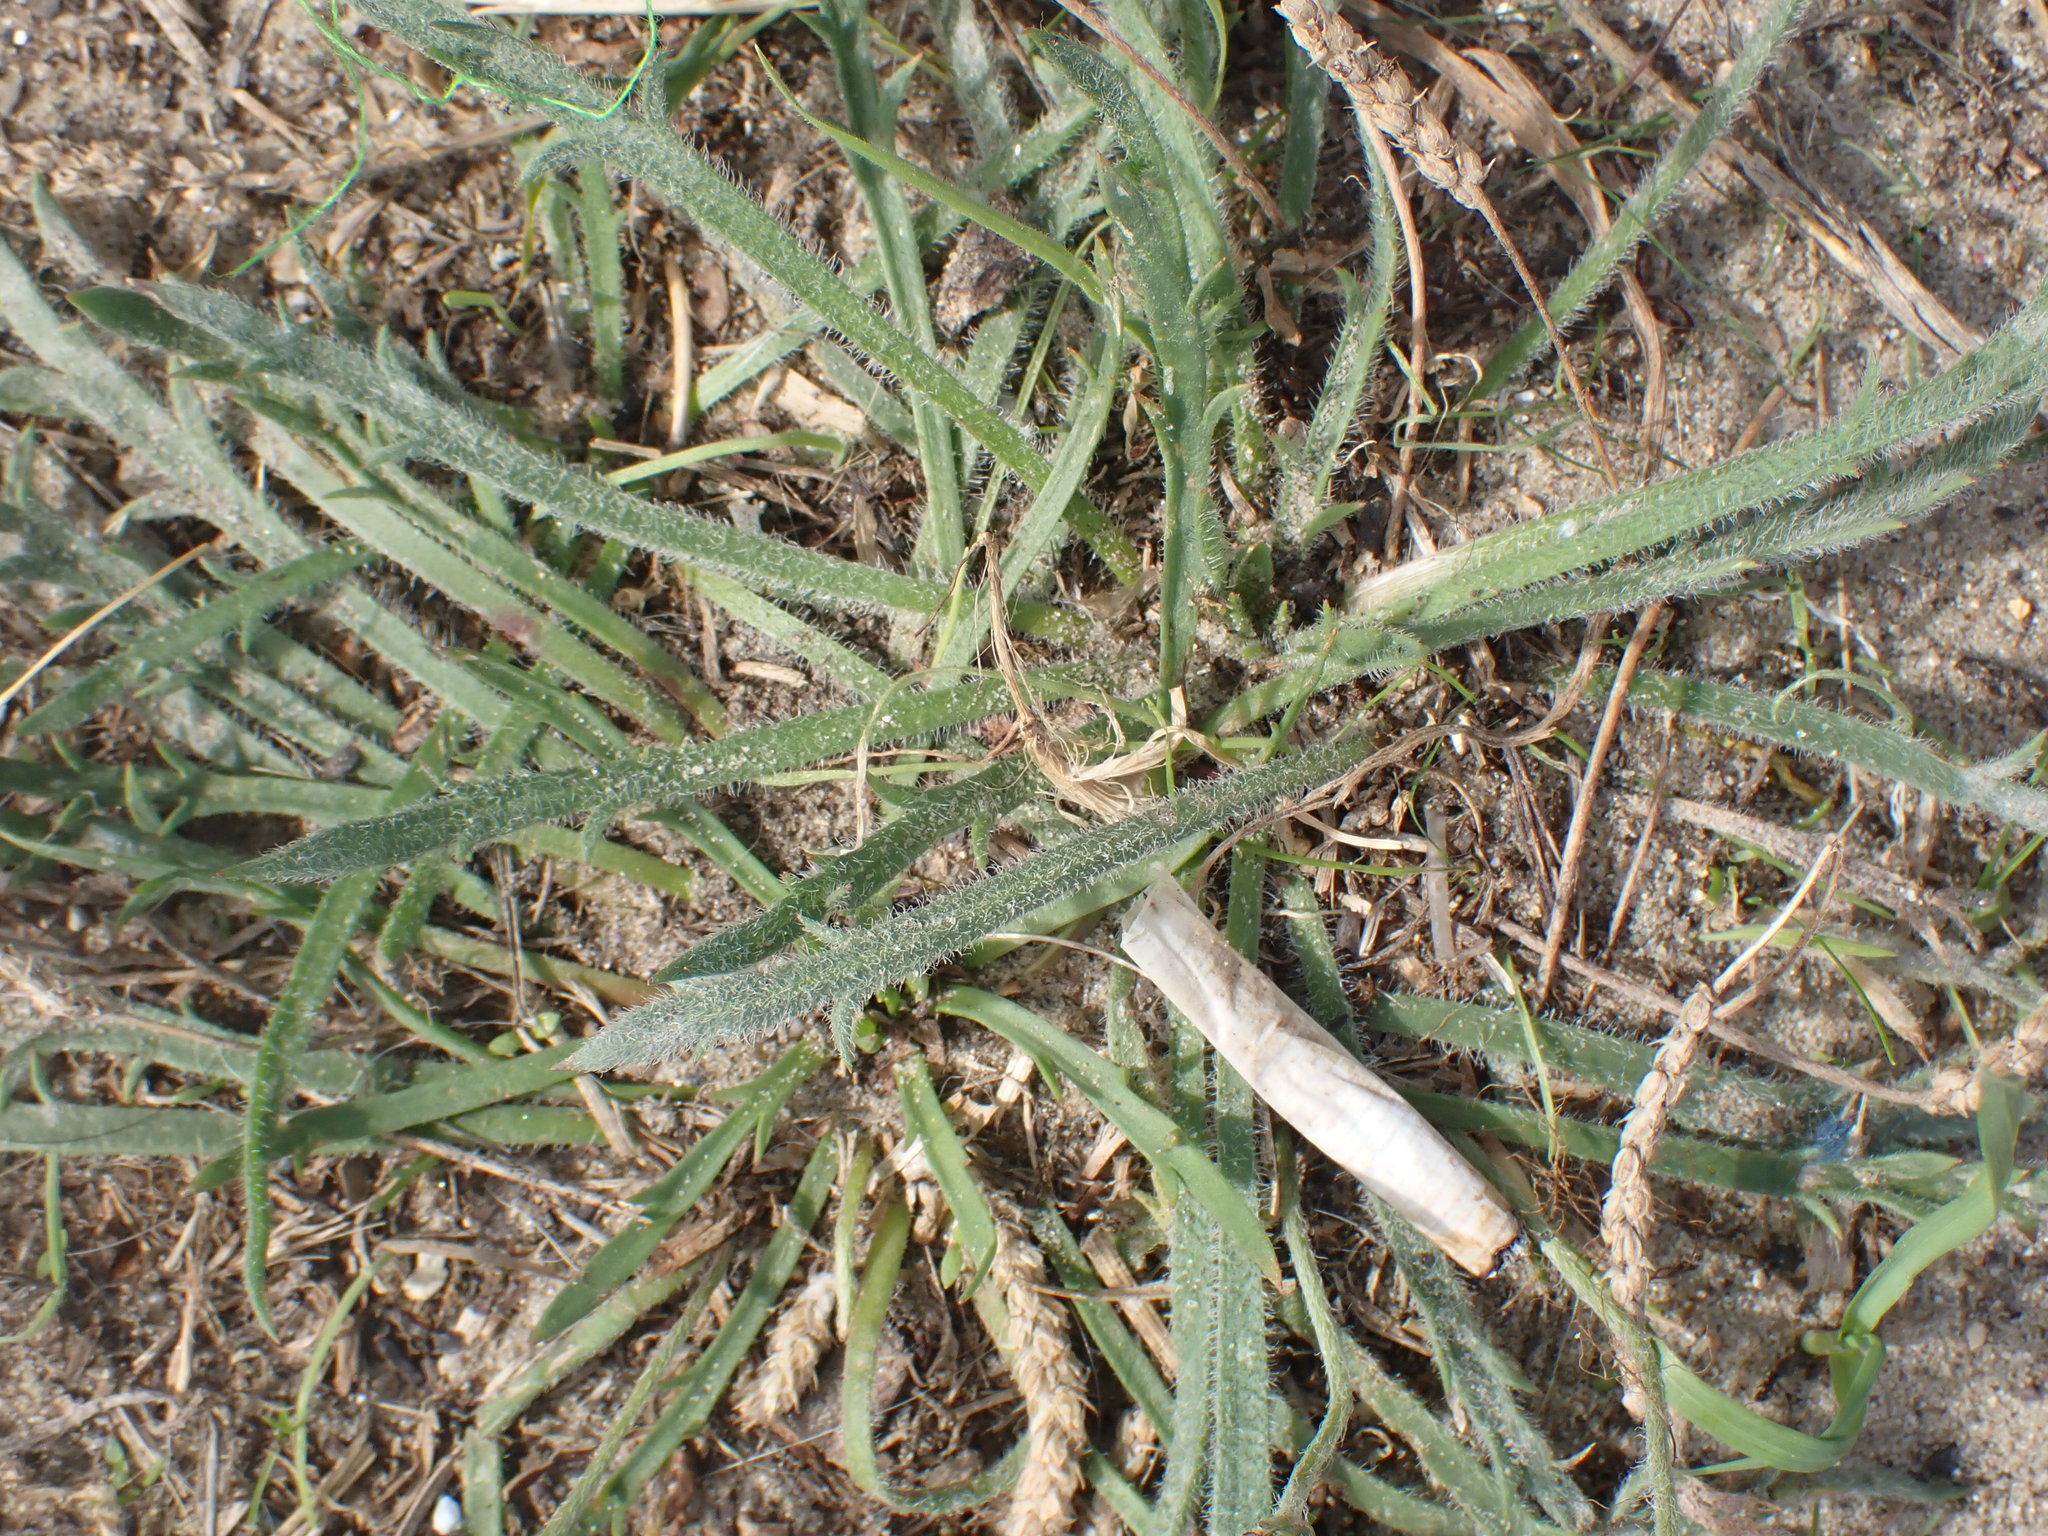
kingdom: Plantae
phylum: Tracheophyta
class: Magnoliopsida
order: Lamiales
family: Plantaginaceae
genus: Plantago
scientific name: Plantago coronopus
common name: Buck's-horn plantain
